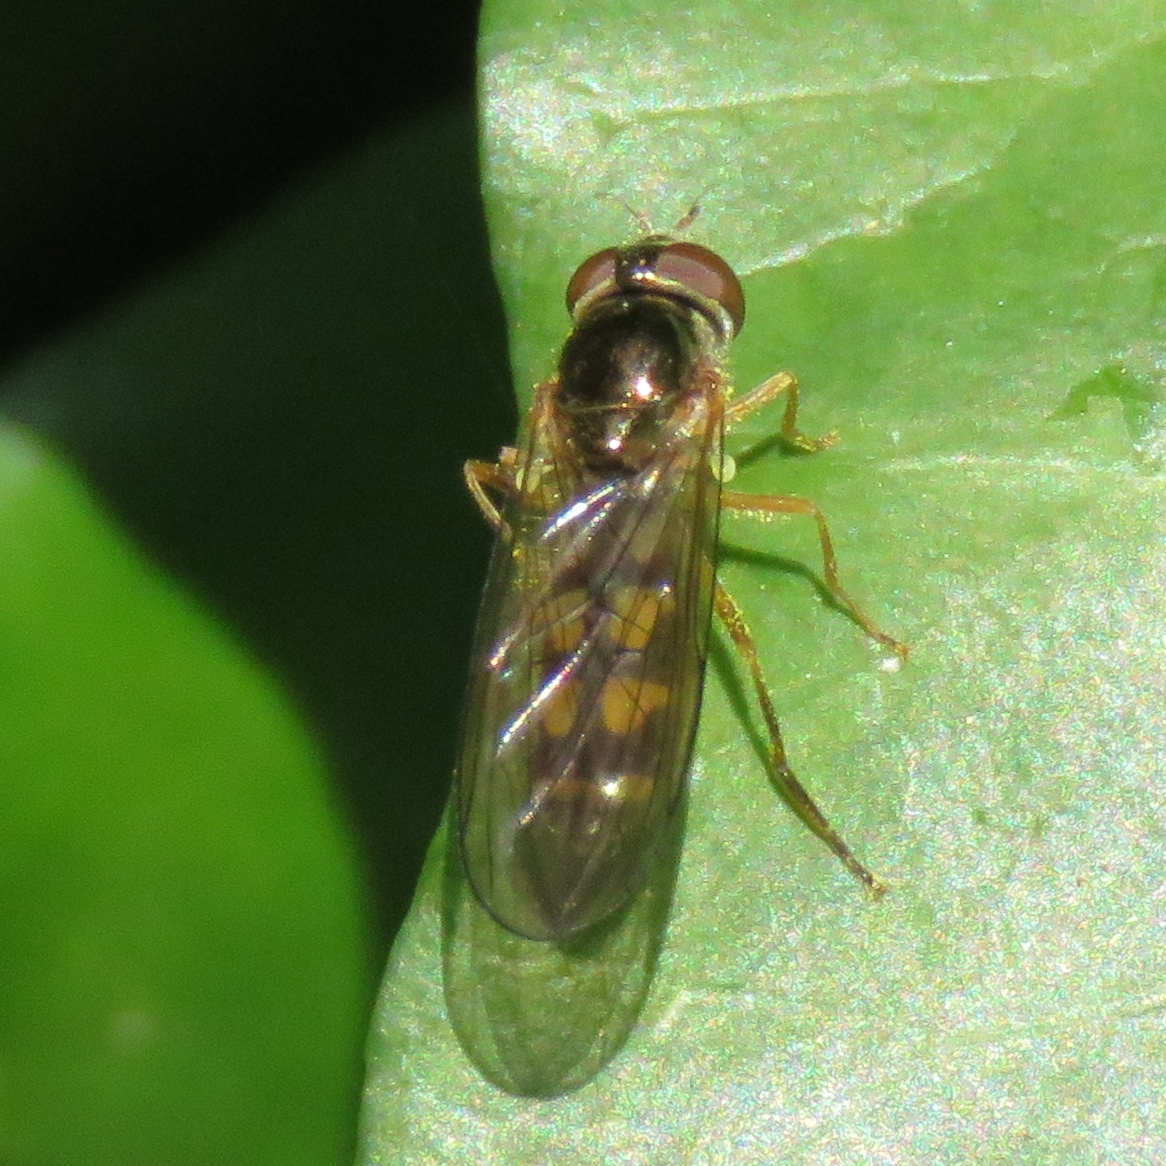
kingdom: Animalia
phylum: Arthropoda
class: Insecta
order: Diptera
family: Syrphidae
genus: Melanostoma
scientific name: Melanostoma scalare
